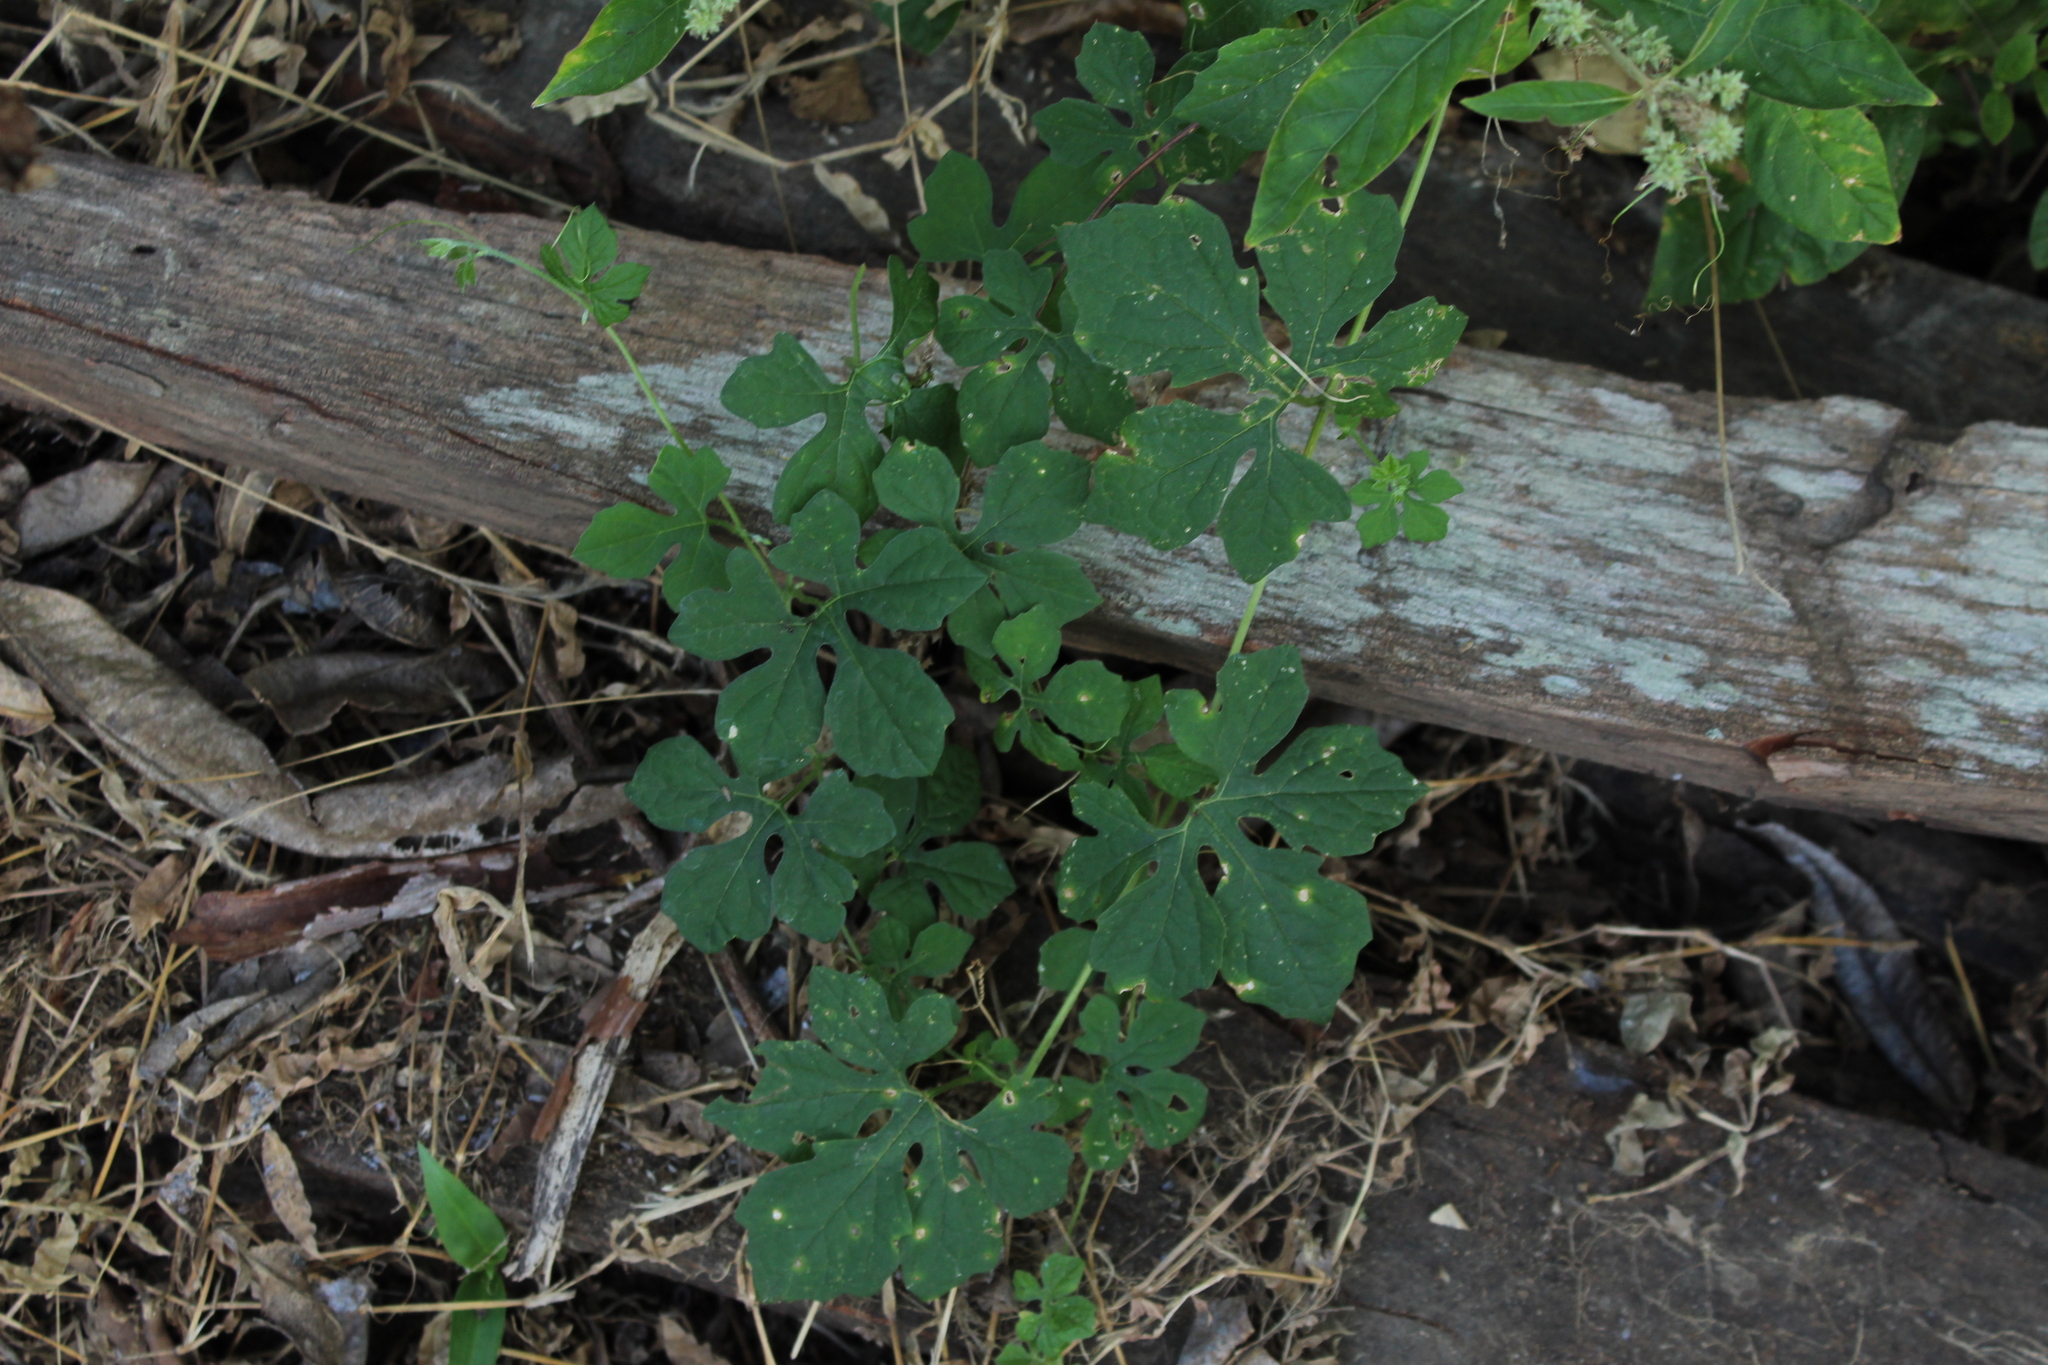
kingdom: Plantae
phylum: Tracheophyta
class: Magnoliopsida
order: Cucurbitales
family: Cucurbitaceae
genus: Momordica
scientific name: Momordica charantia
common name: Balsampear
